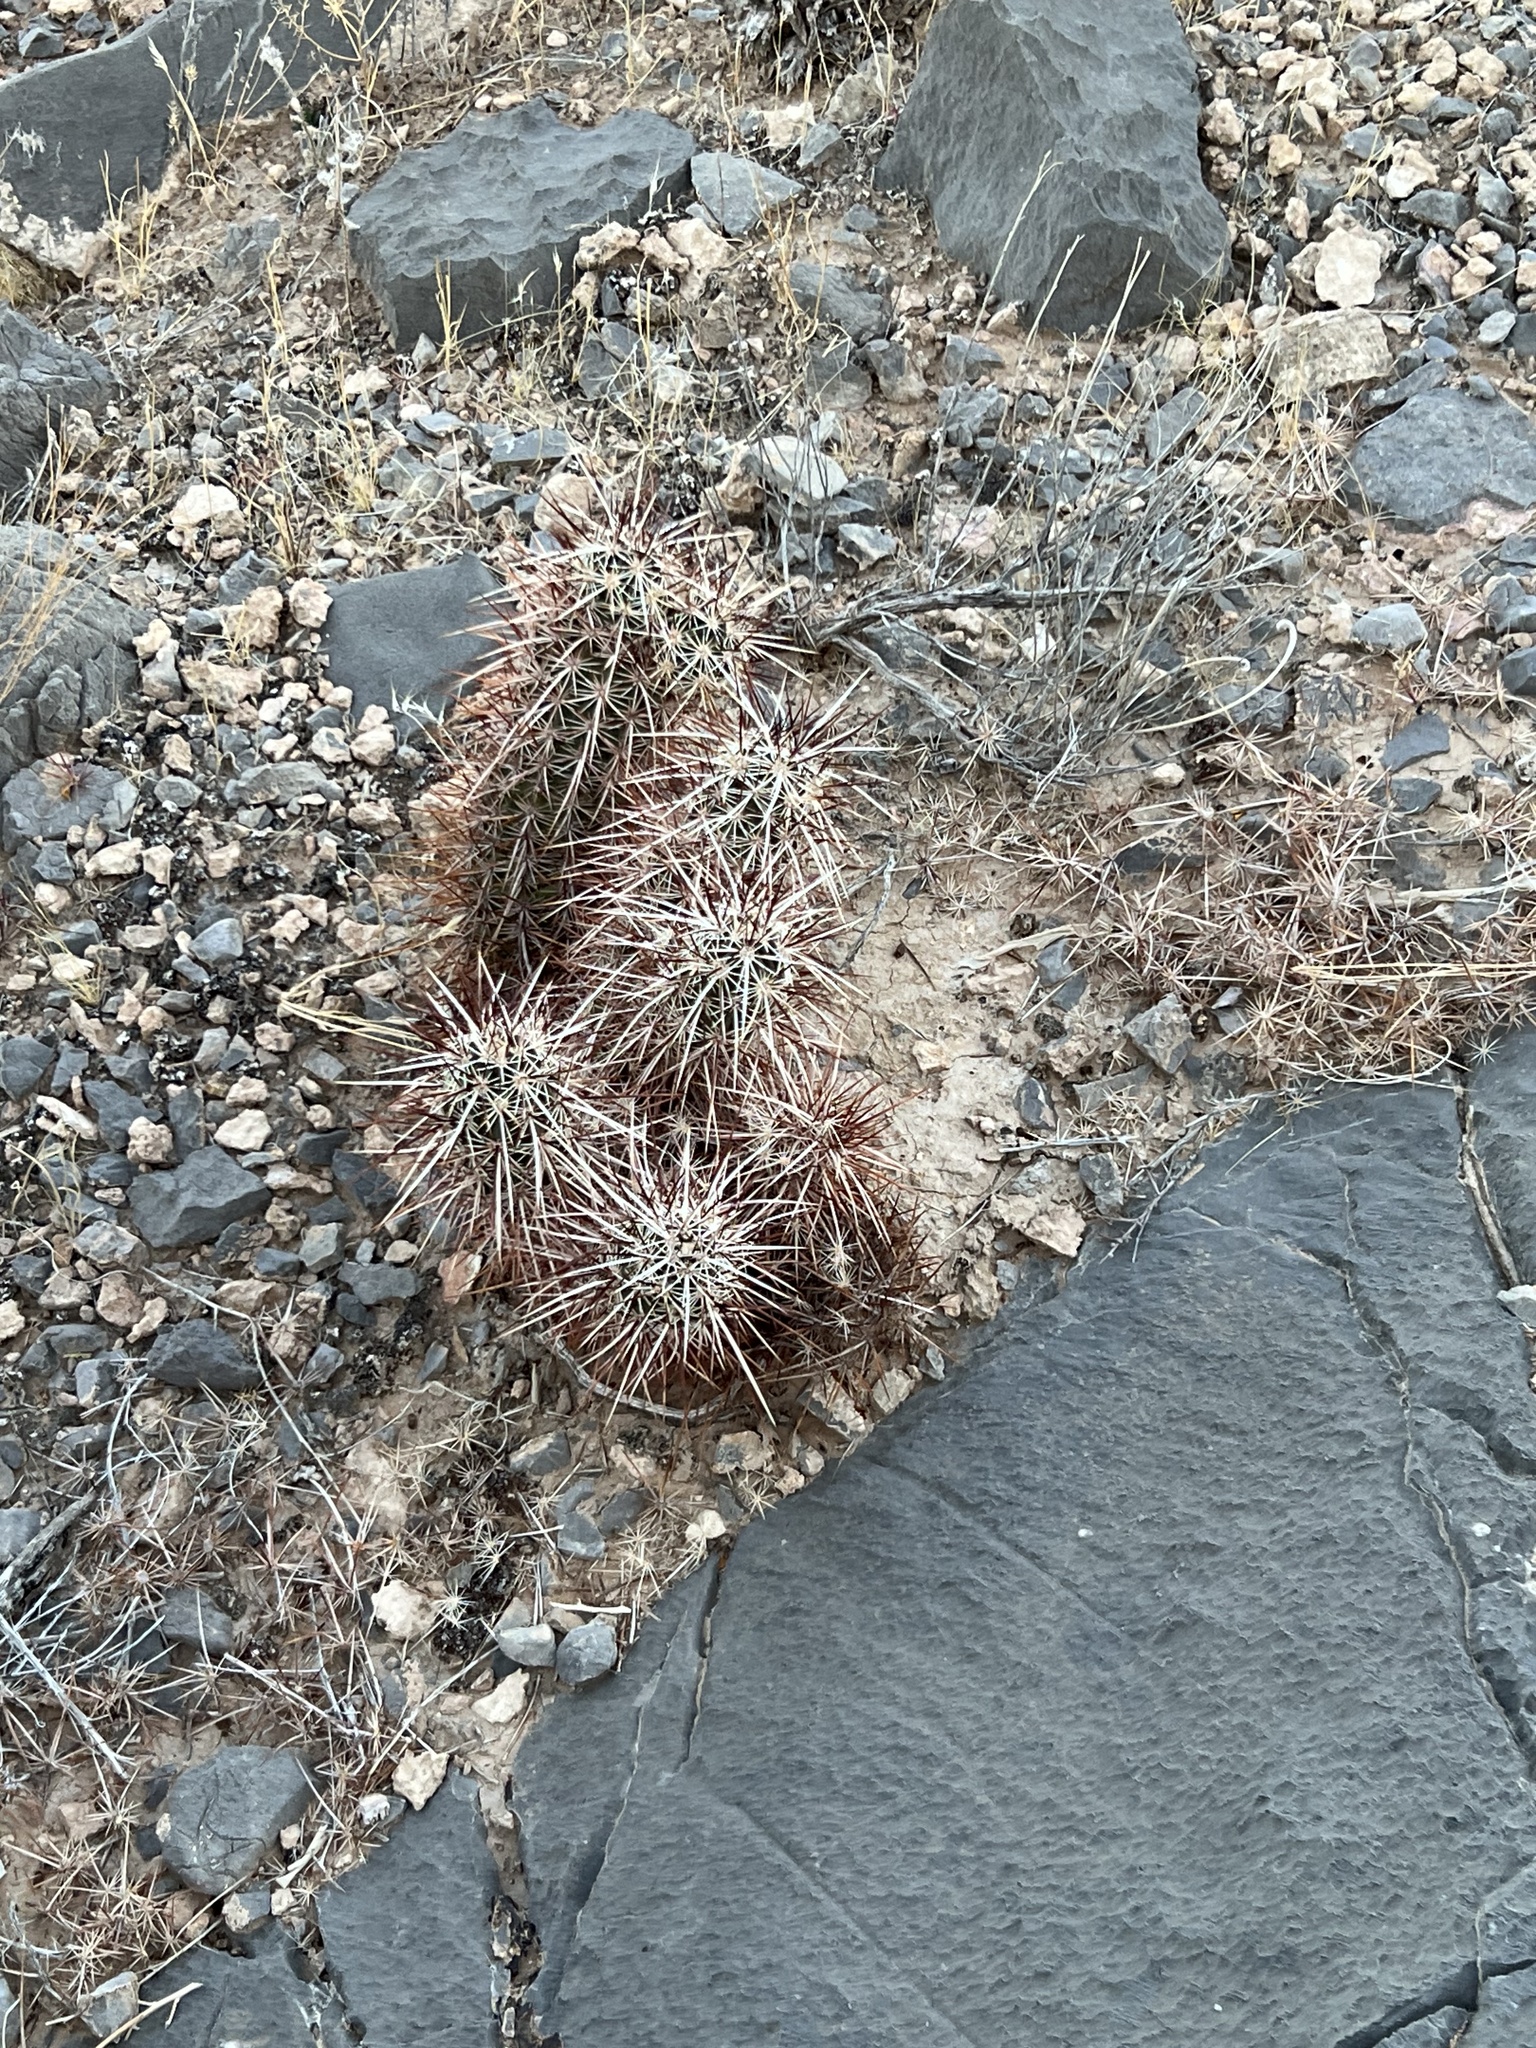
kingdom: Plantae
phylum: Tracheophyta
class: Magnoliopsida
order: Caryophyllales
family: Cactaceae
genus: Echinocereus
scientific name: Echinocereus engelmannii
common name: Engelmann's hedgehog cactus
